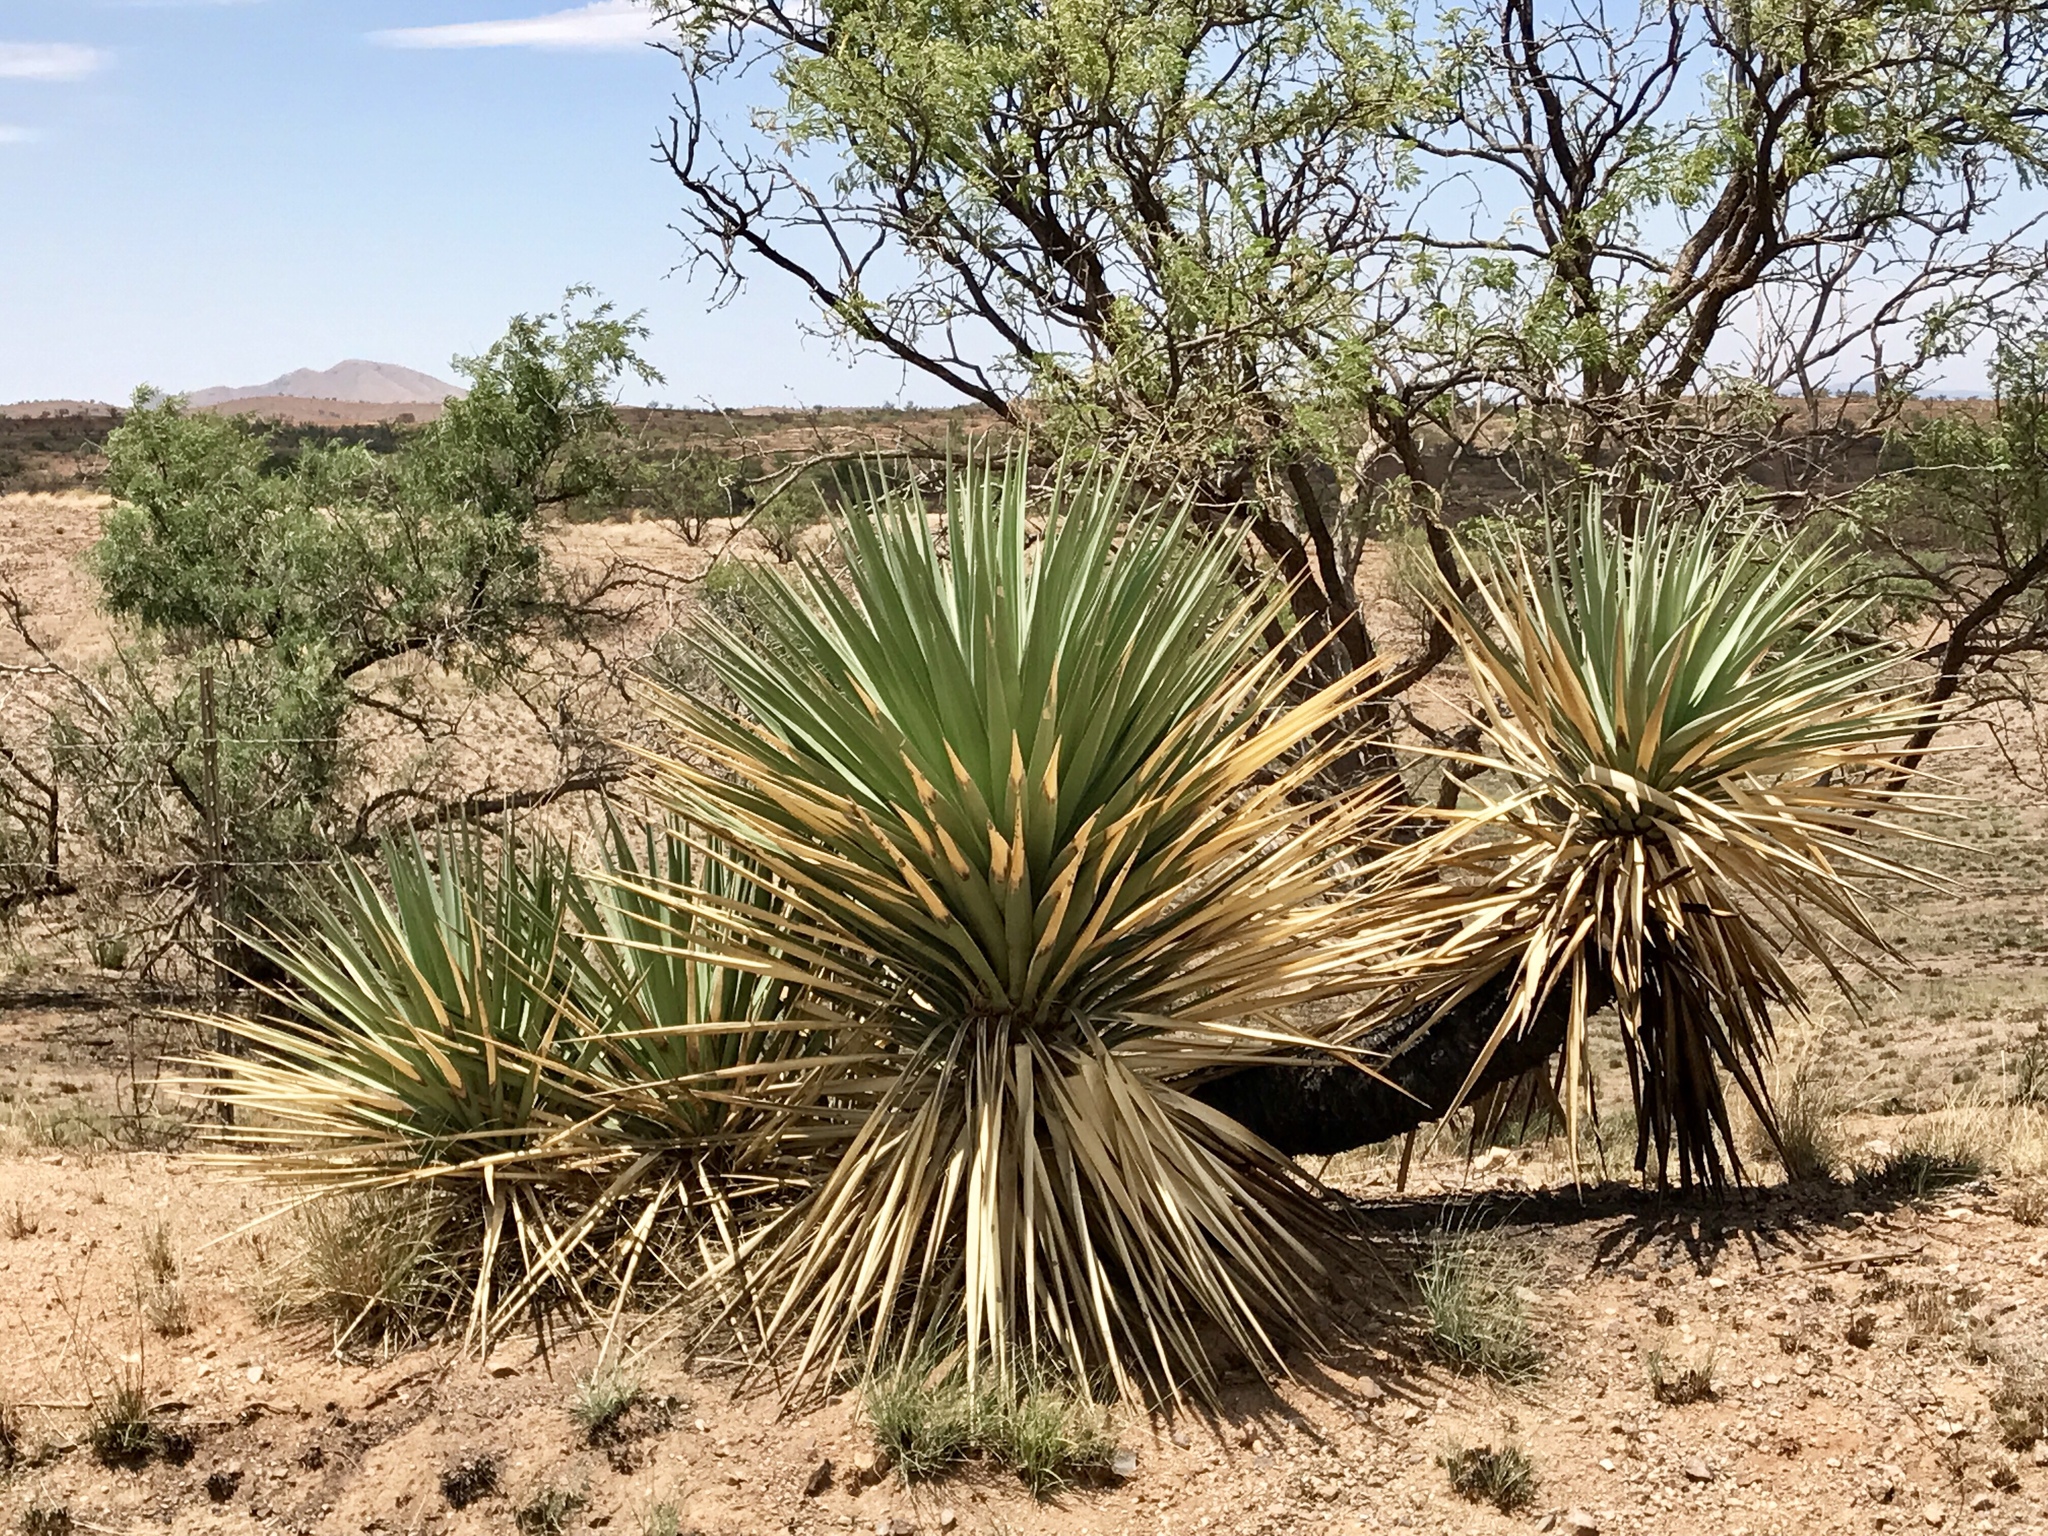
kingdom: Plantae
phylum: Tracheophyta
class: Liliopsida
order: Asparagales
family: Asparagaceae
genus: Dasylirion
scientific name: Dasylirion wheeleri
